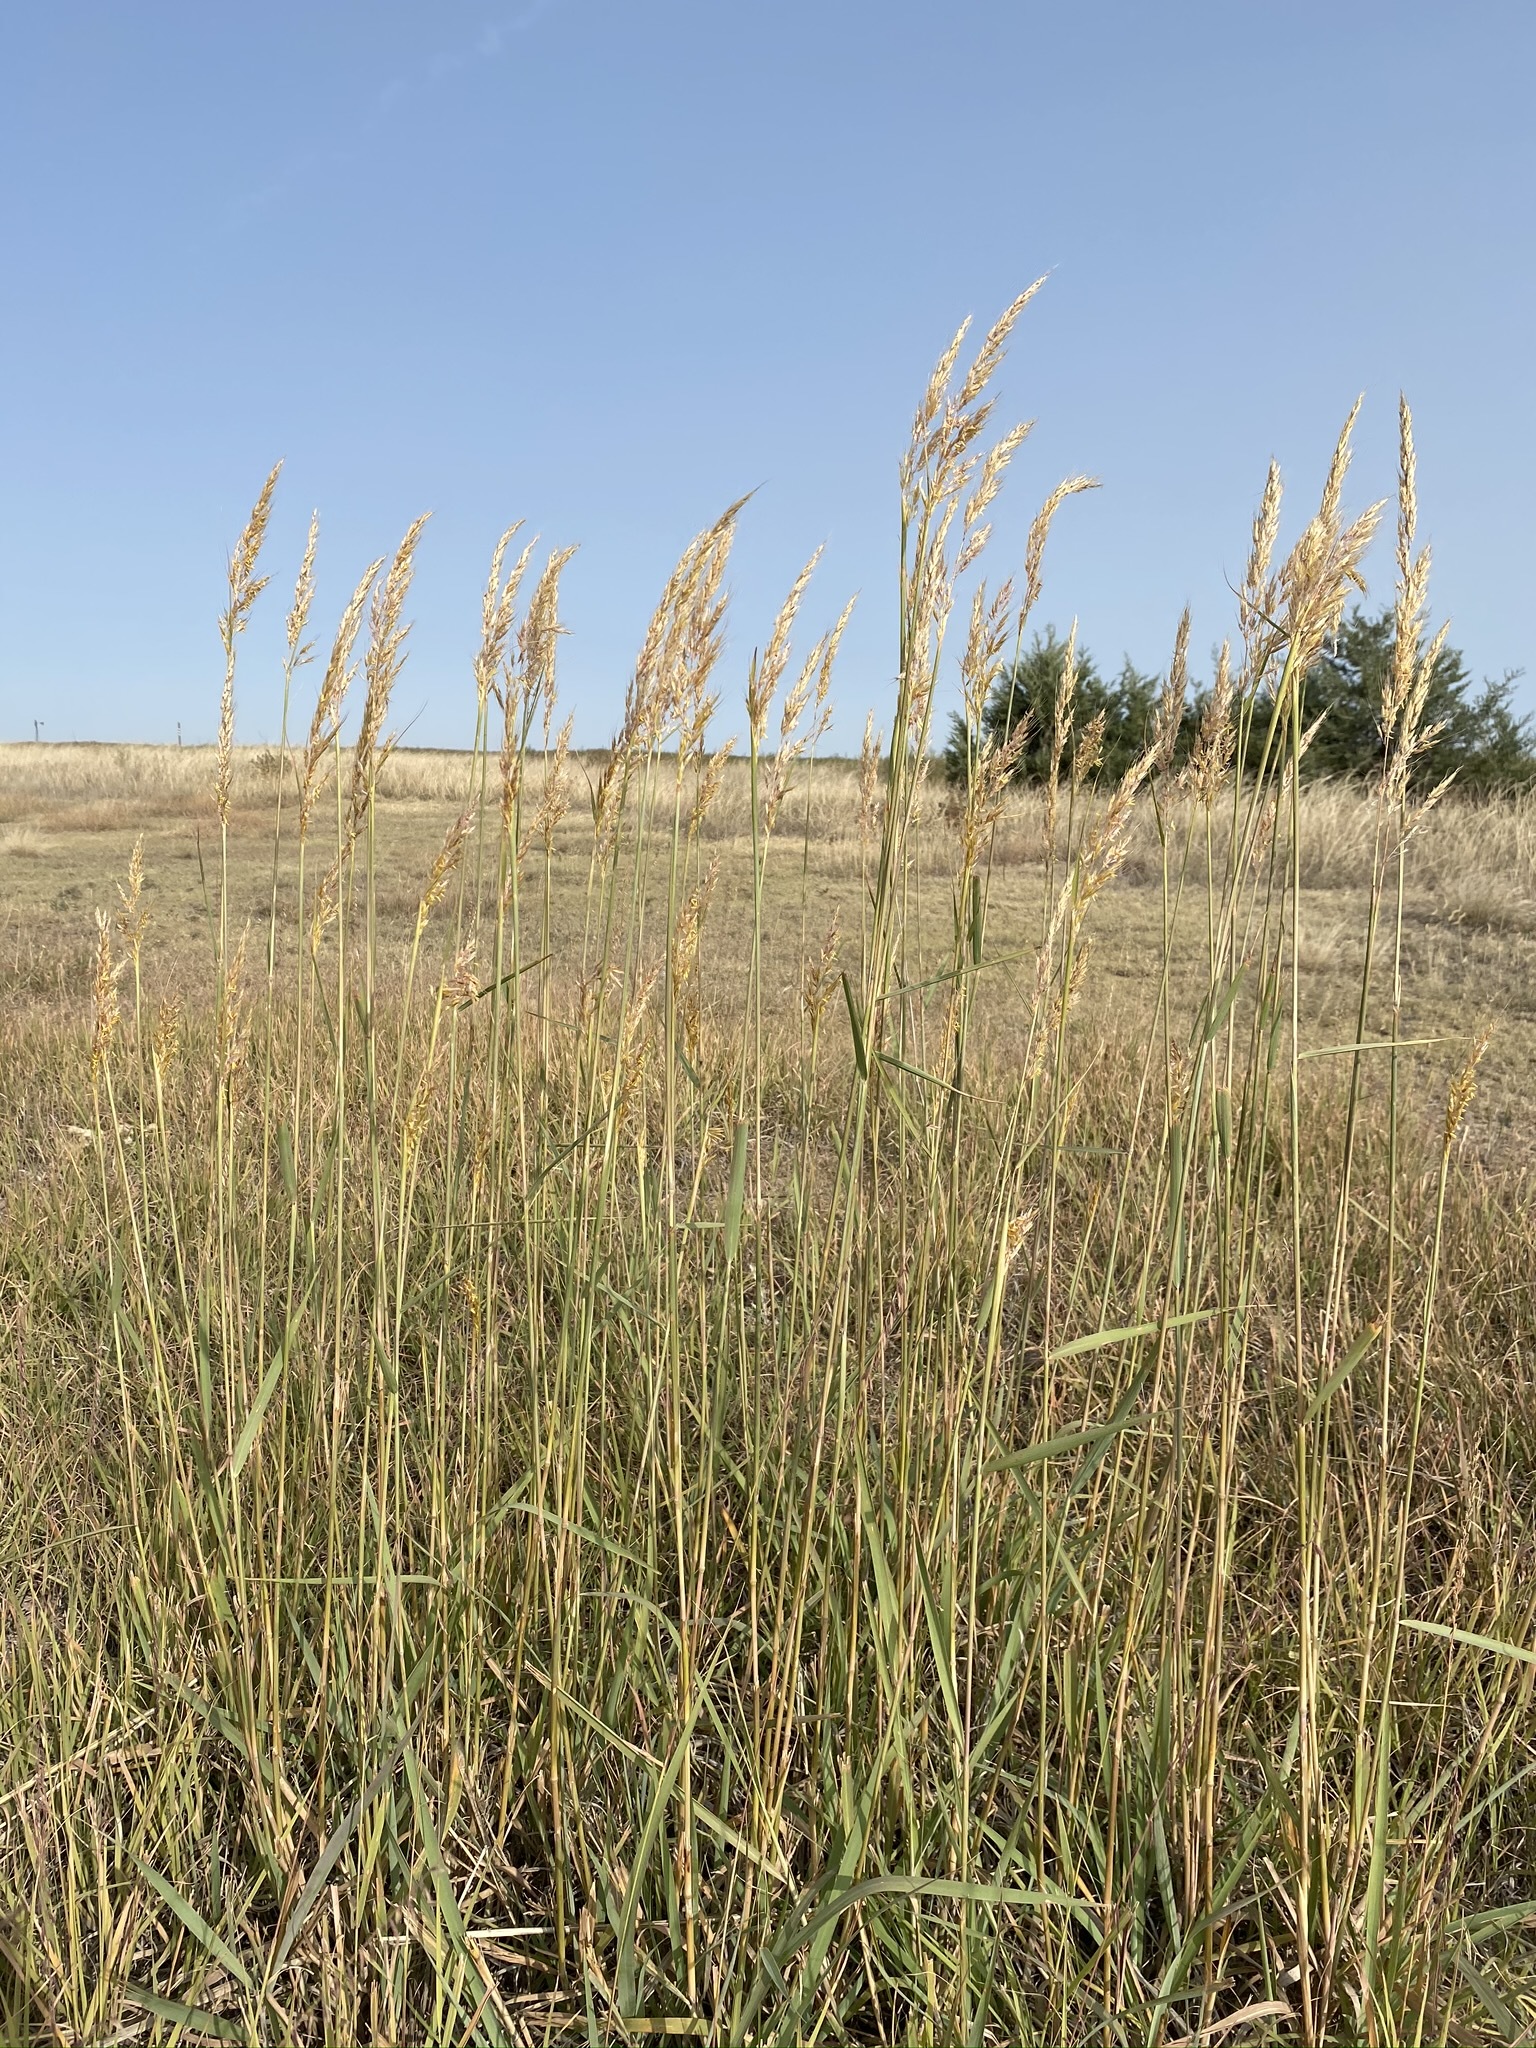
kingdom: Plantae
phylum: Tracheophyta
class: Liliopsida
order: Poales
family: Poaceae
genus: Sorghastrum
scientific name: Sorghastrum nutans
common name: Indian grass
